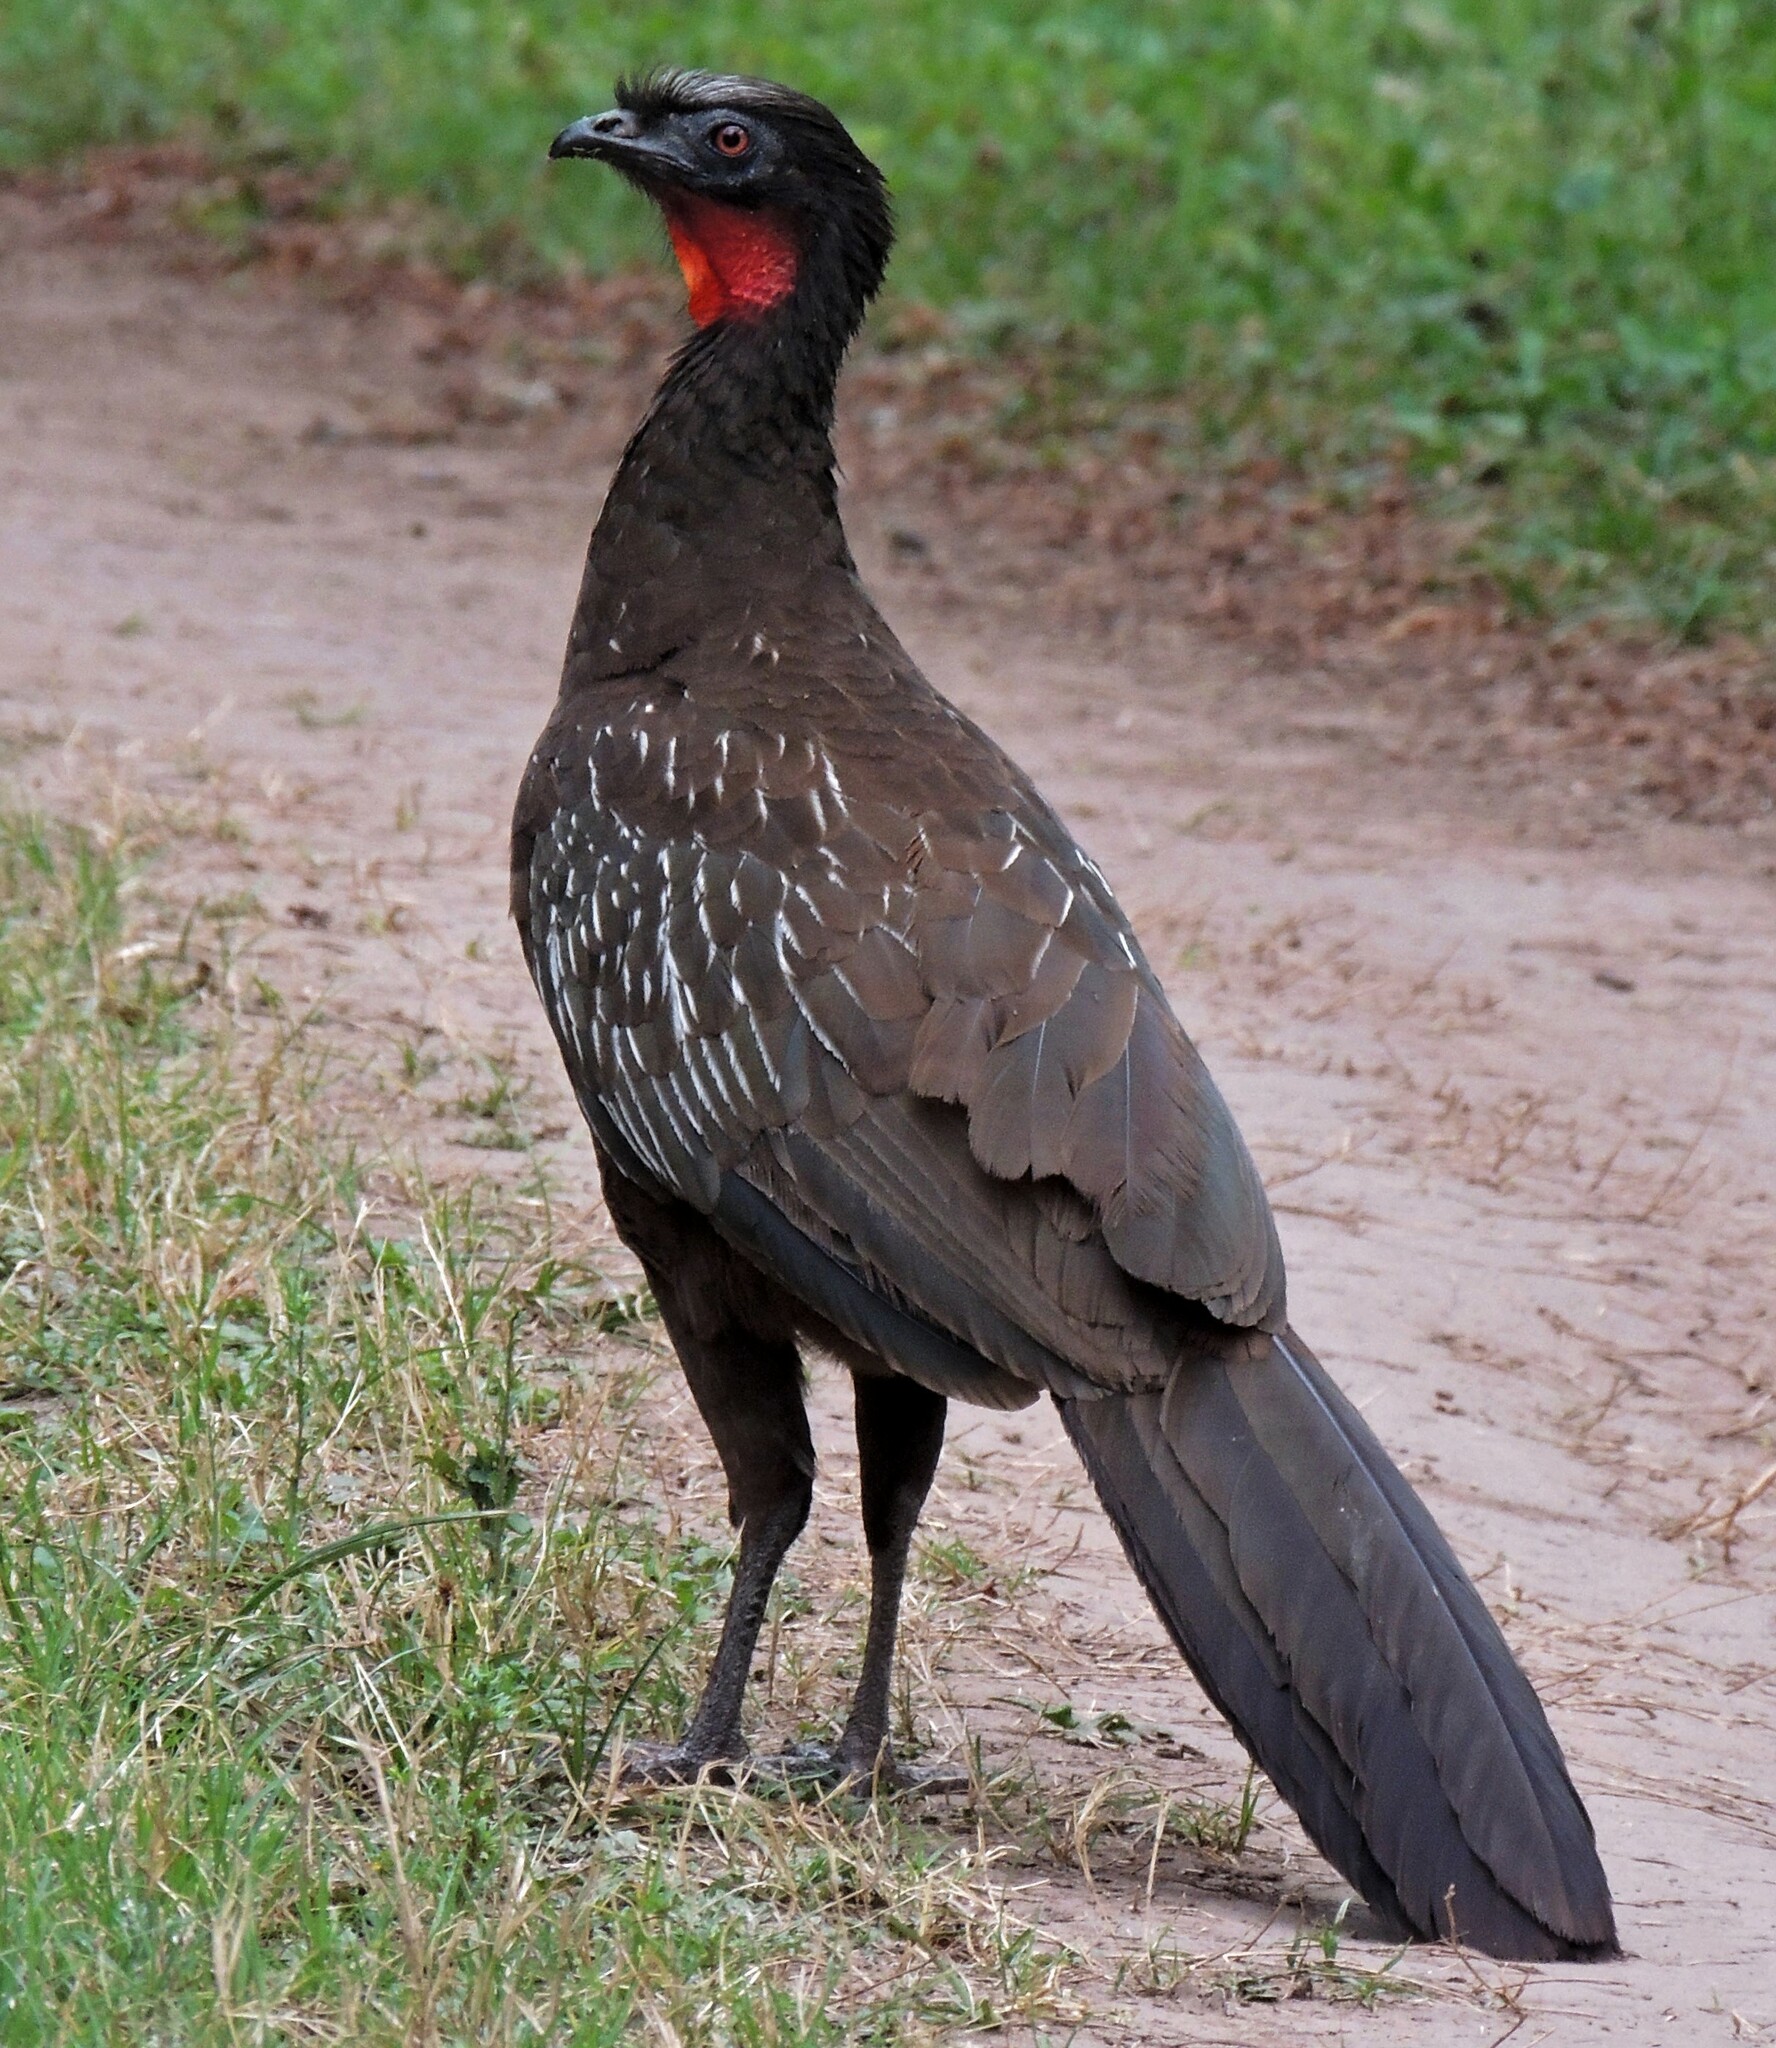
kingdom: Animalia
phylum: Chordata
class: Aves
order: Galliformes
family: Cracidae
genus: Penelope
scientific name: Penelope bridgesi
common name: Yungas guan
